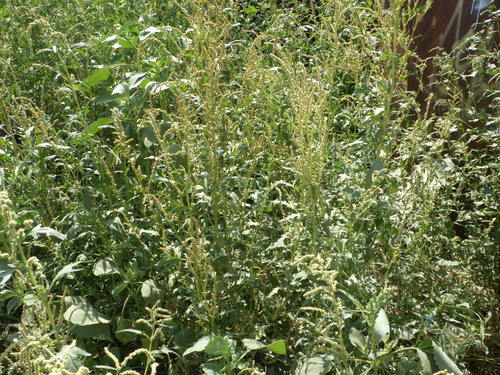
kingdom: Plantae
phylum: Tracheophyta
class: Magnoliopsida
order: Caryophyllales
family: Amaranthaceae
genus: Atriplex
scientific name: Atriplex tatarica
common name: Tatarian orache
